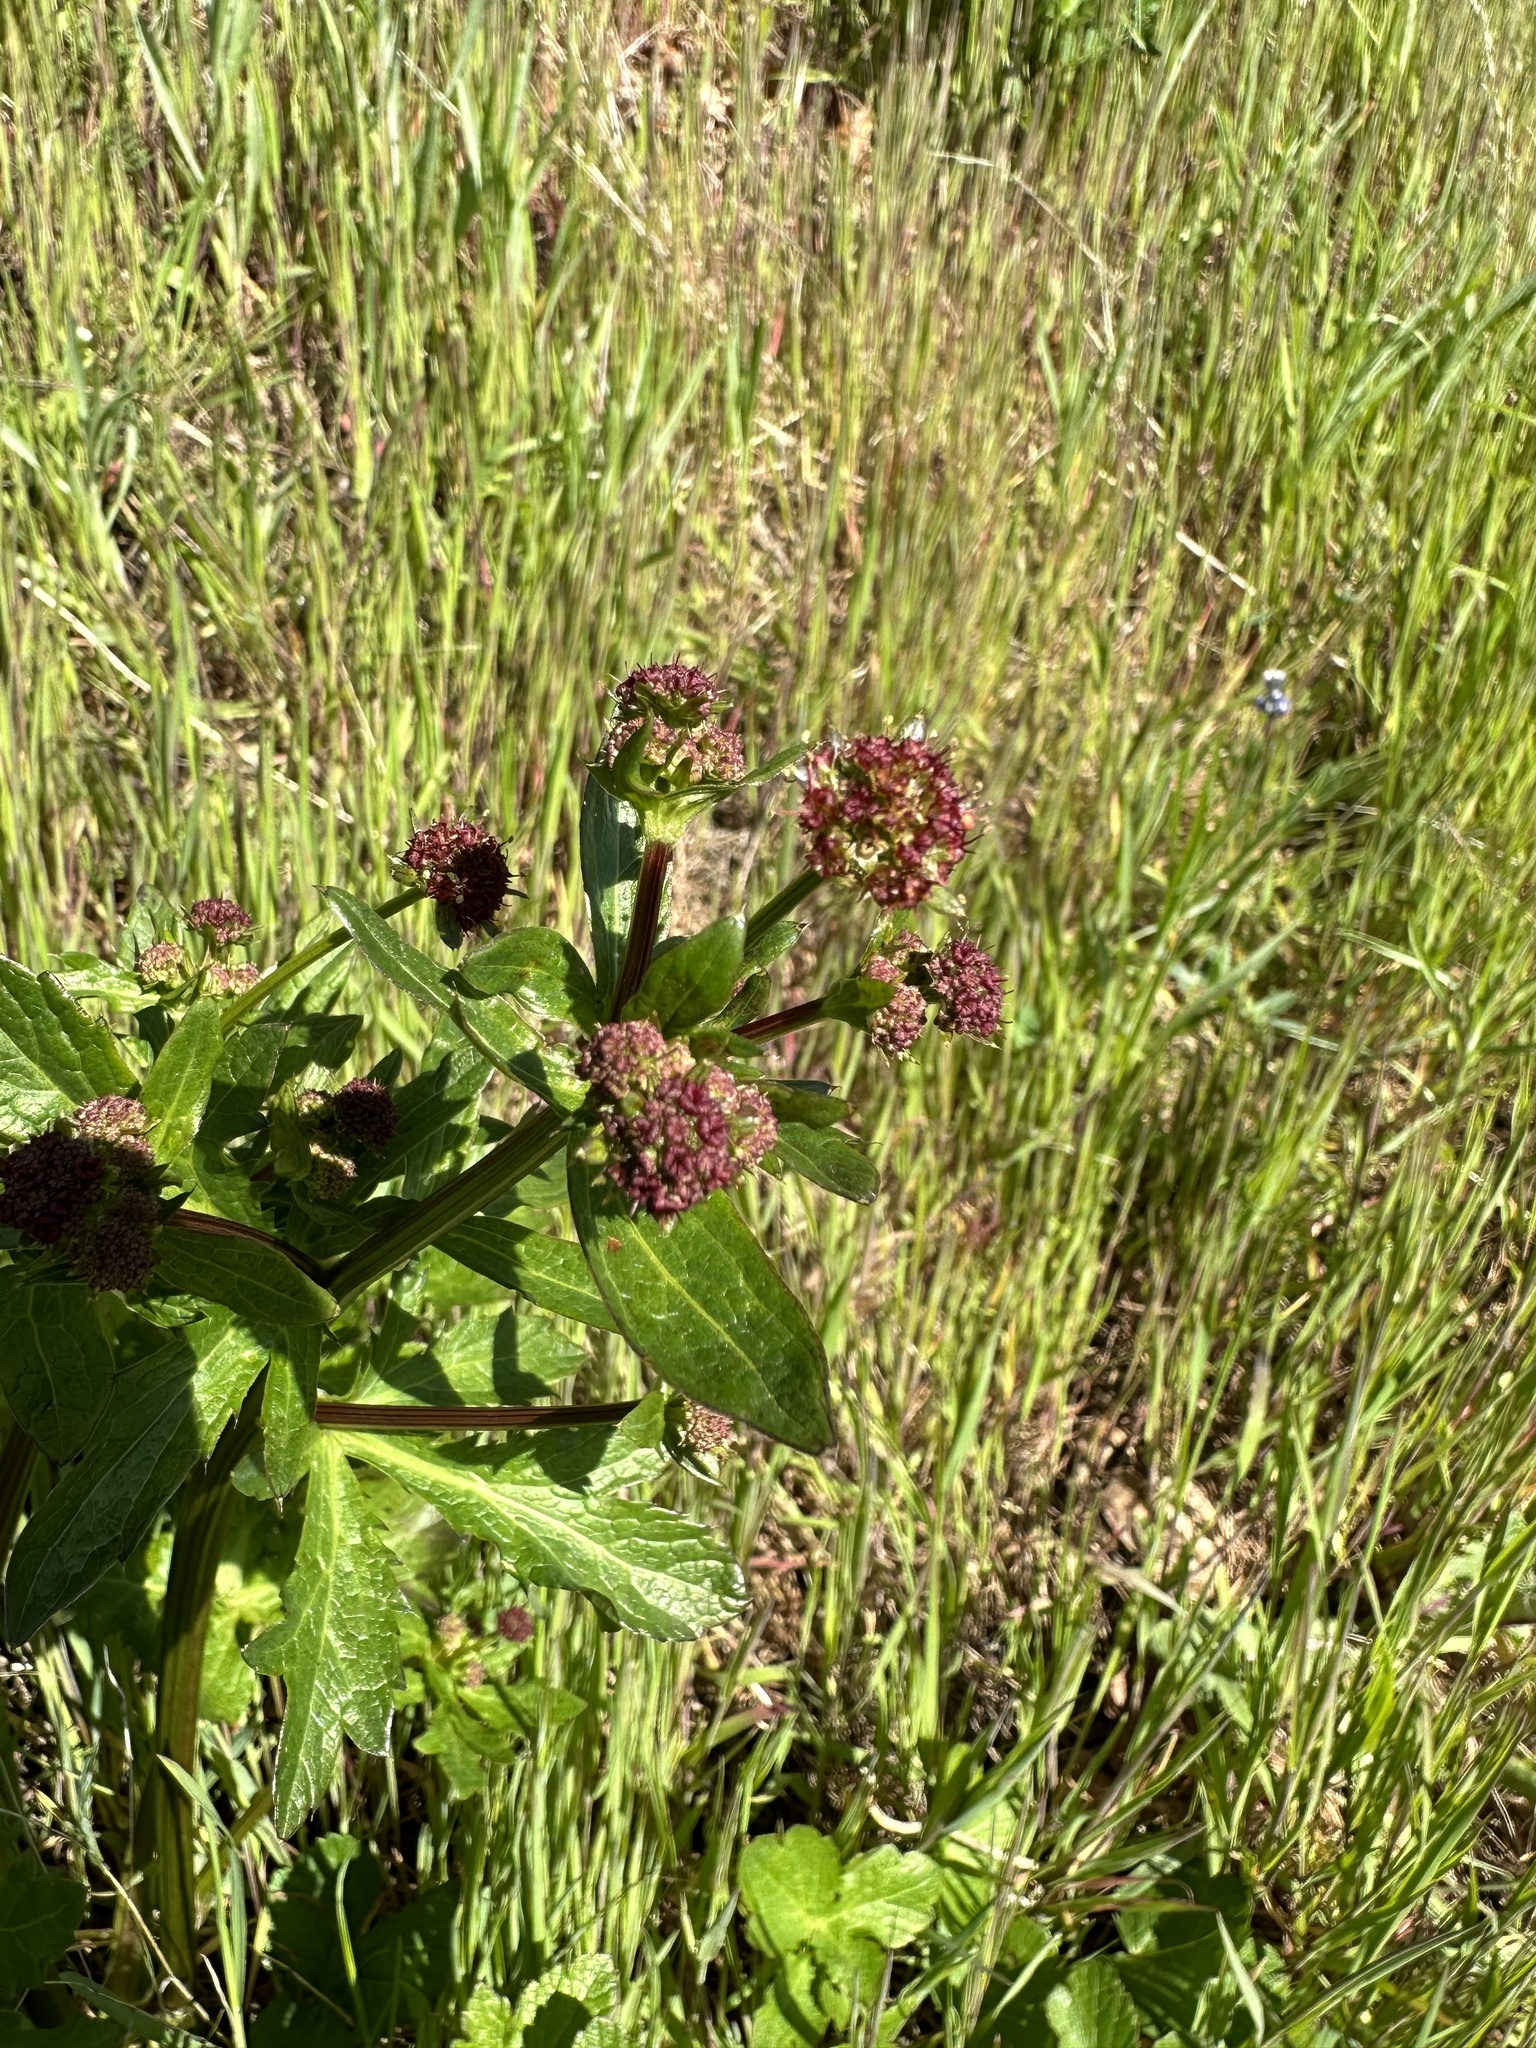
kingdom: Plantae
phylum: Tracheophyta
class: Magnoliopsida
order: Apiales
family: Apiaceae
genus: Sanicula
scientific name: Sanicula bipinnatifida
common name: Shoe-buttons
